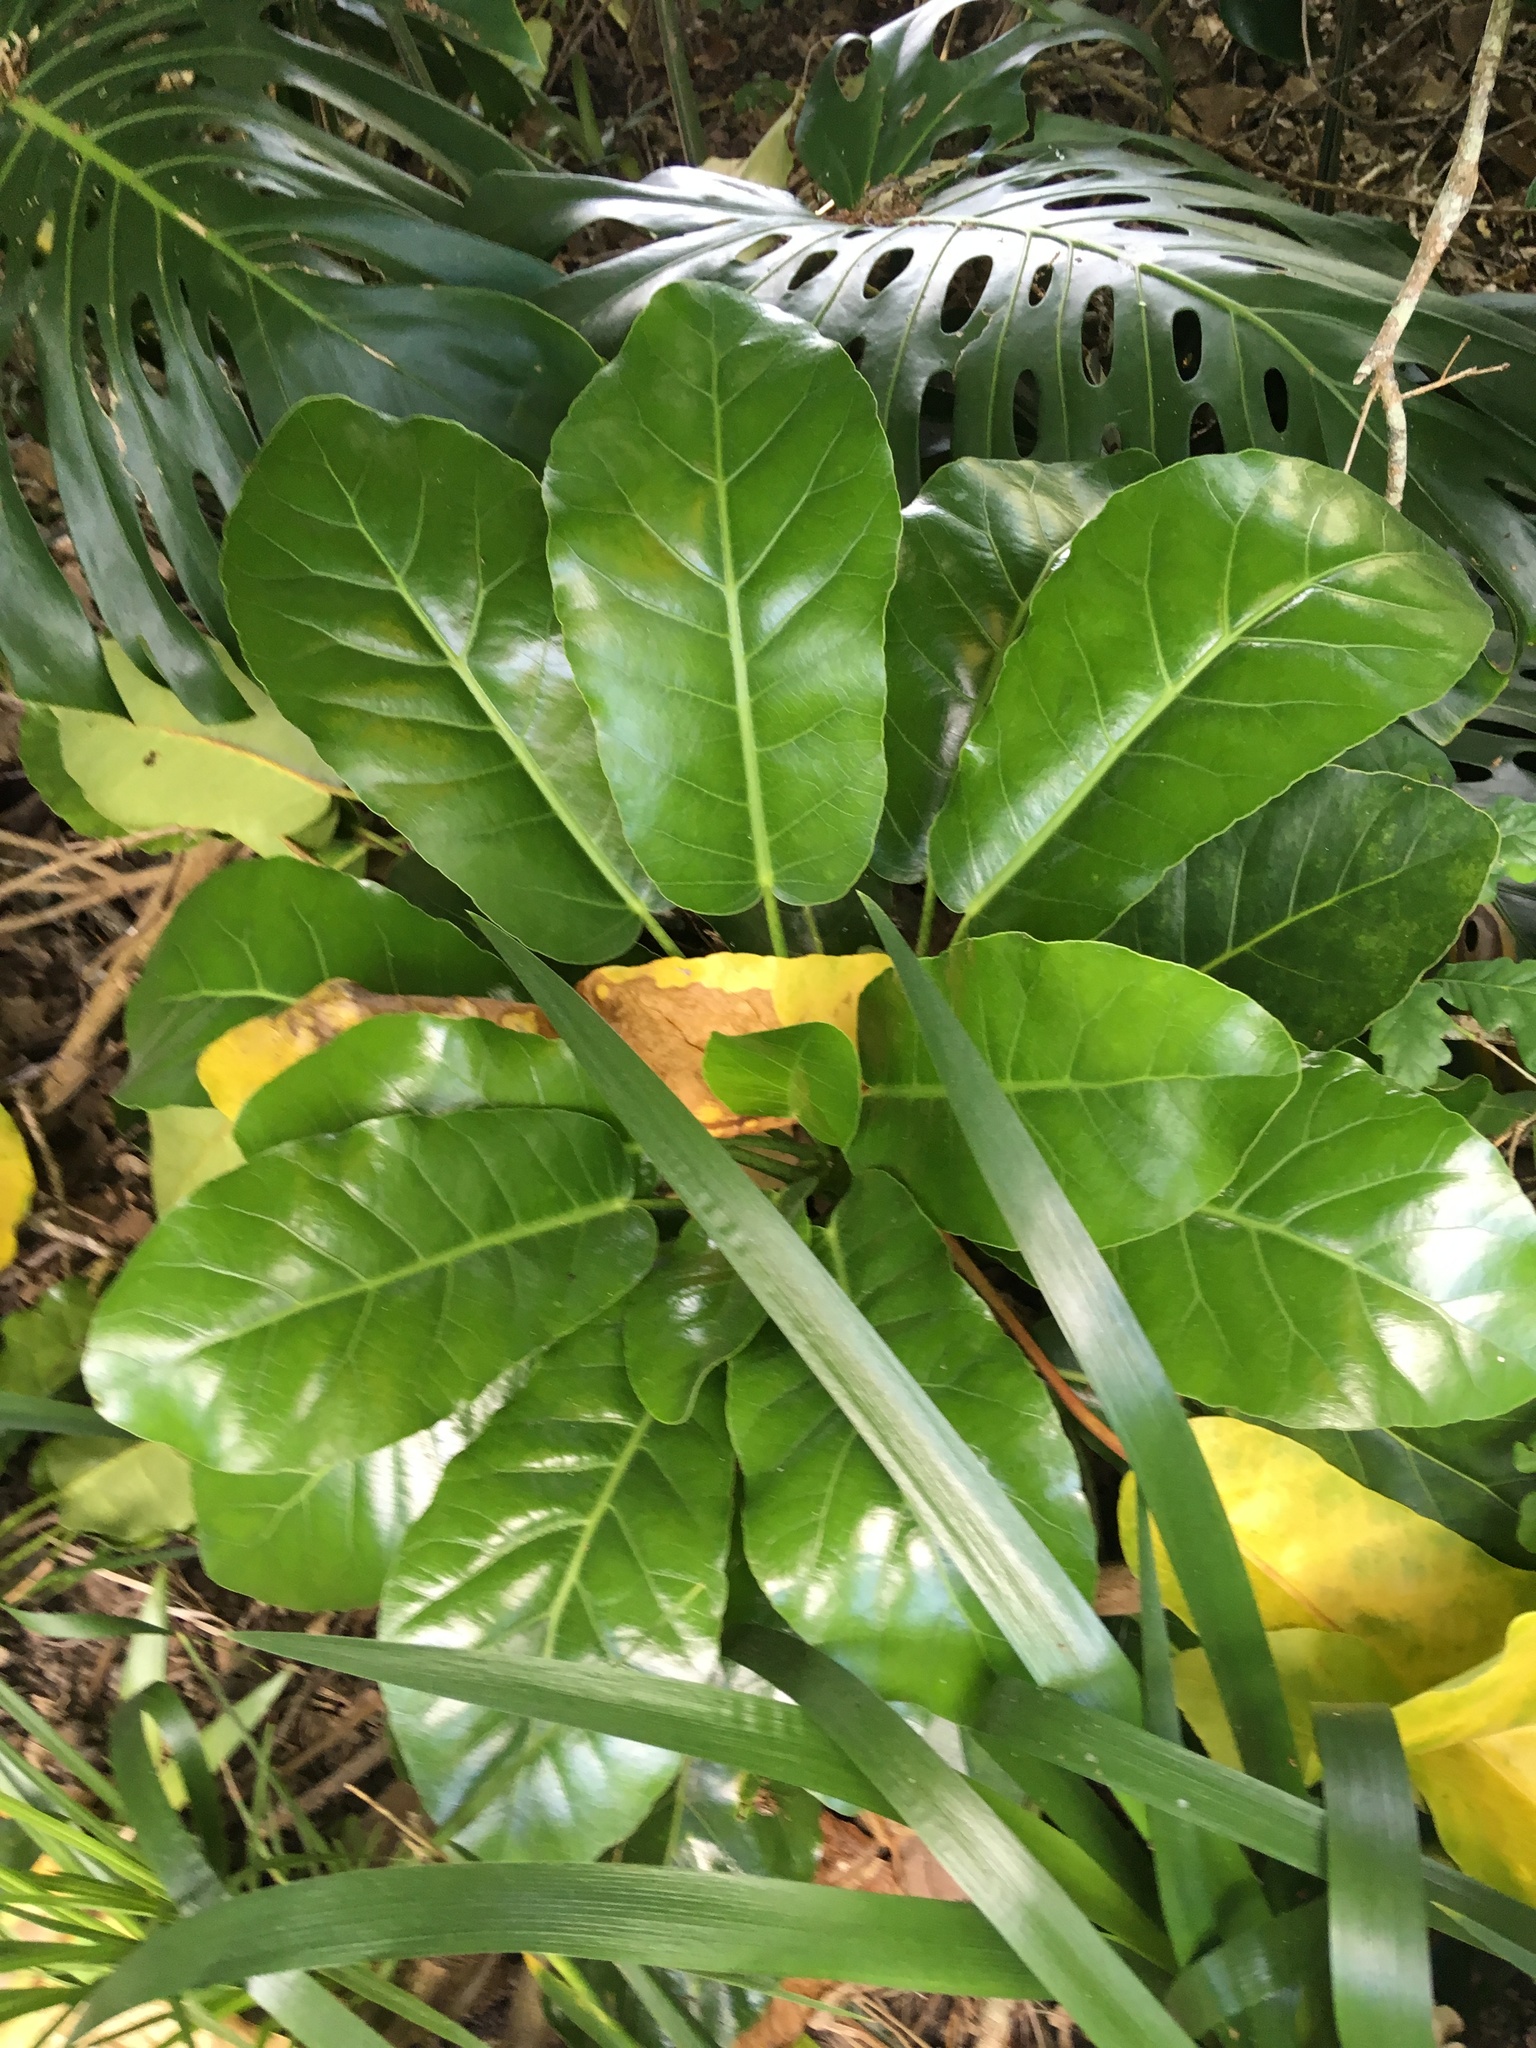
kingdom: Plantae
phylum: Tracheophyta
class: Magnoliopsida
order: Apiales
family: Araliaceae
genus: Meryta
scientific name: Meryta sinclairii
